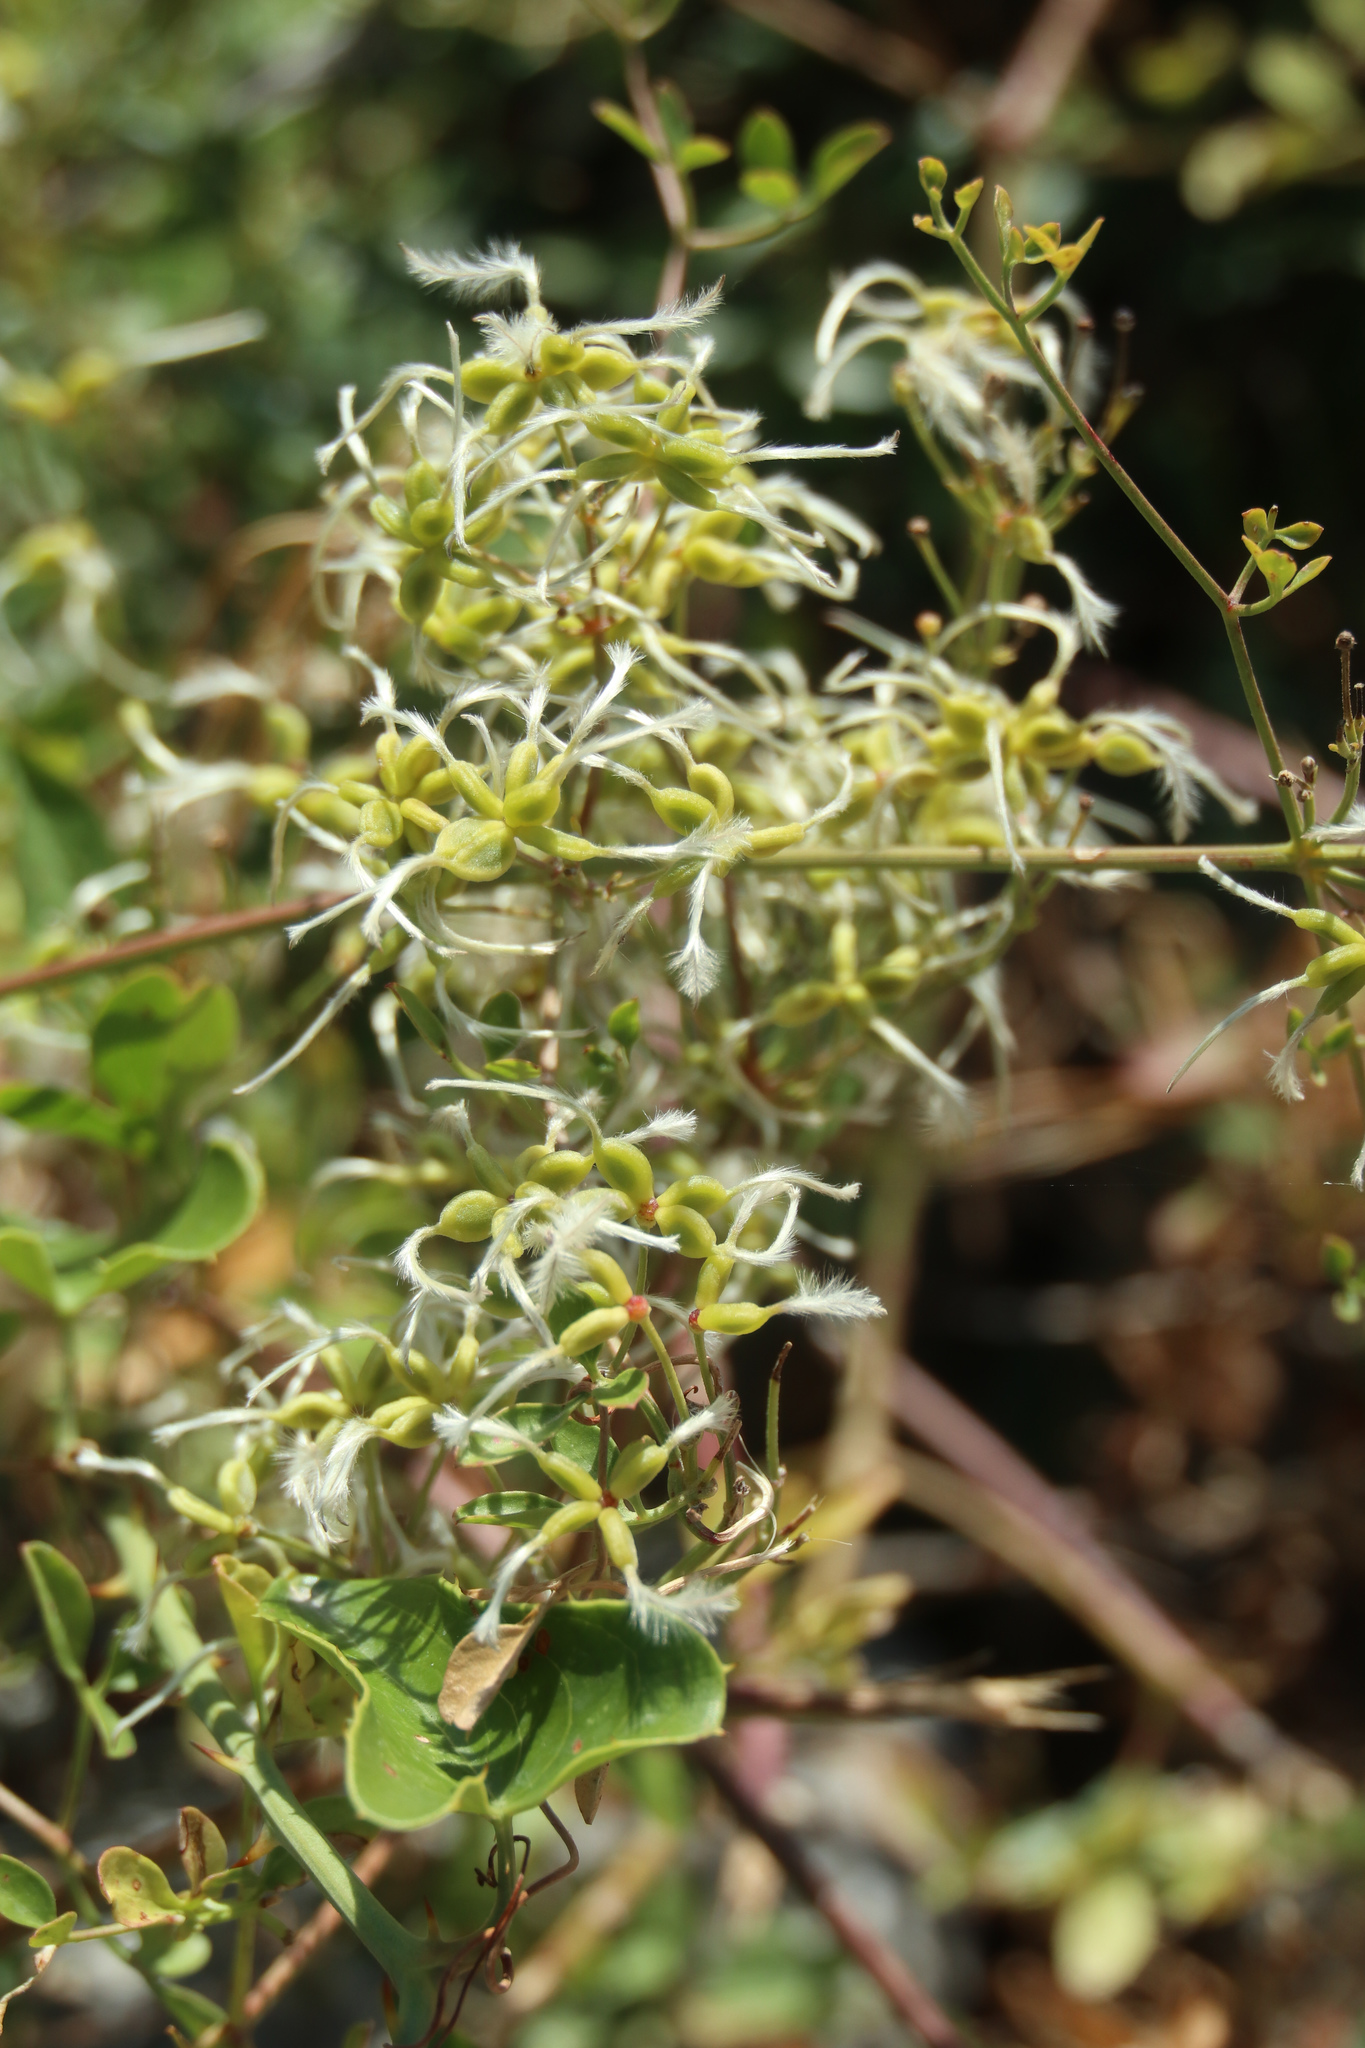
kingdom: Plantae
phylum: Tracheophyta
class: Magnoliopsida
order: Ranunculales
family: Ranunculaceae
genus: Clematis
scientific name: Clematis flammula
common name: Virgin's-bower
